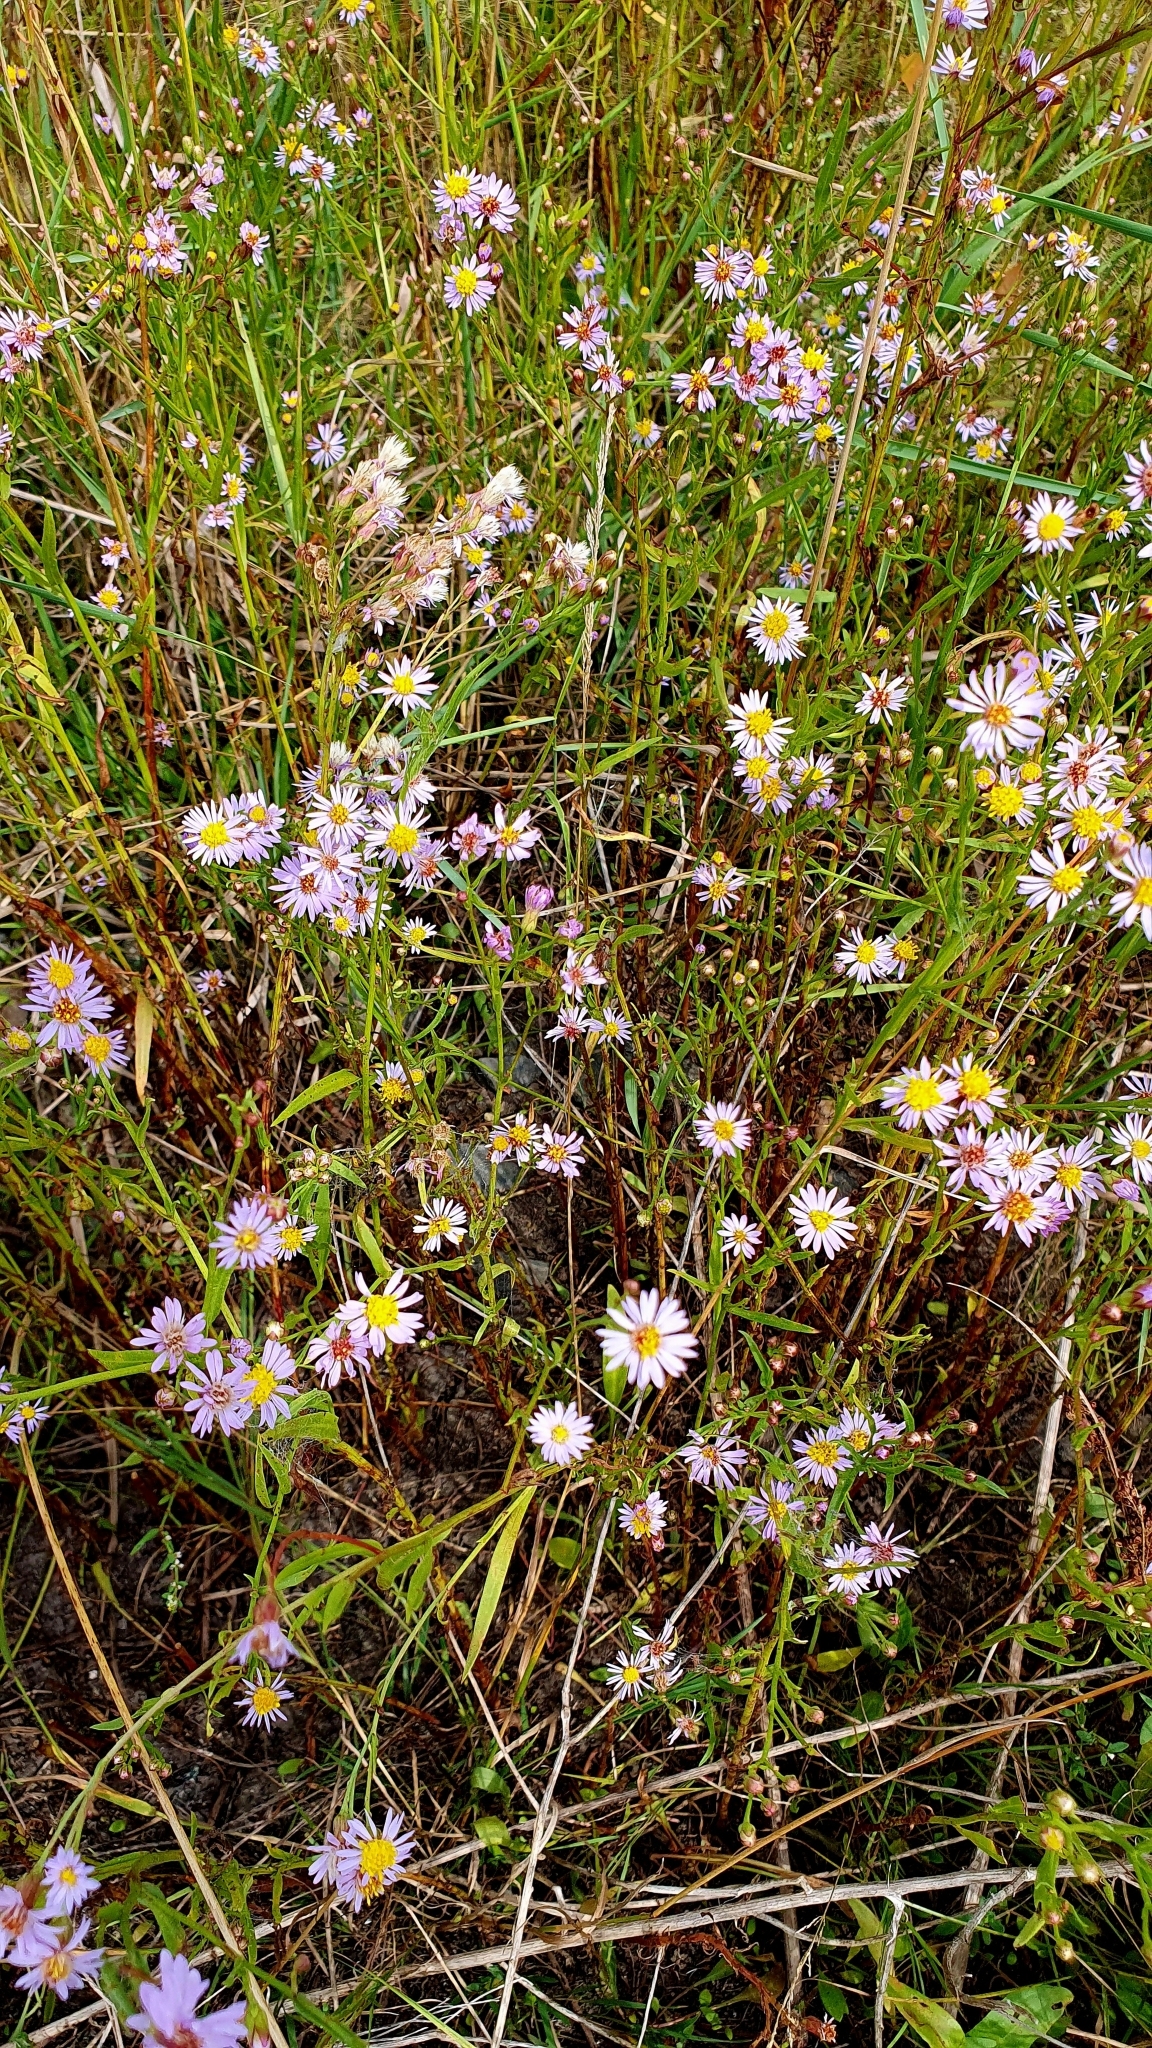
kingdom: Plantae
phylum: Tracheophyta
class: Magnoliopsida
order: Asterales
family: Asteraceae
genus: Tripolium
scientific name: Tripolium pannonicum
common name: Sea aster
